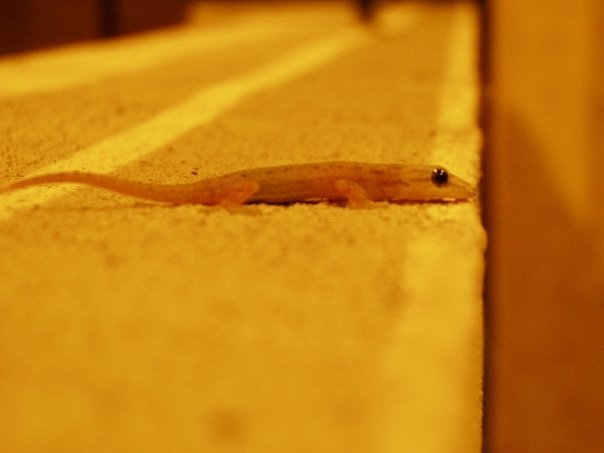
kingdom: Animalia
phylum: Chordata
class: Squamata
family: Gekkonidae
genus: Hemidactylus
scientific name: Hemidactylus frenatus
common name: Common house gecko
